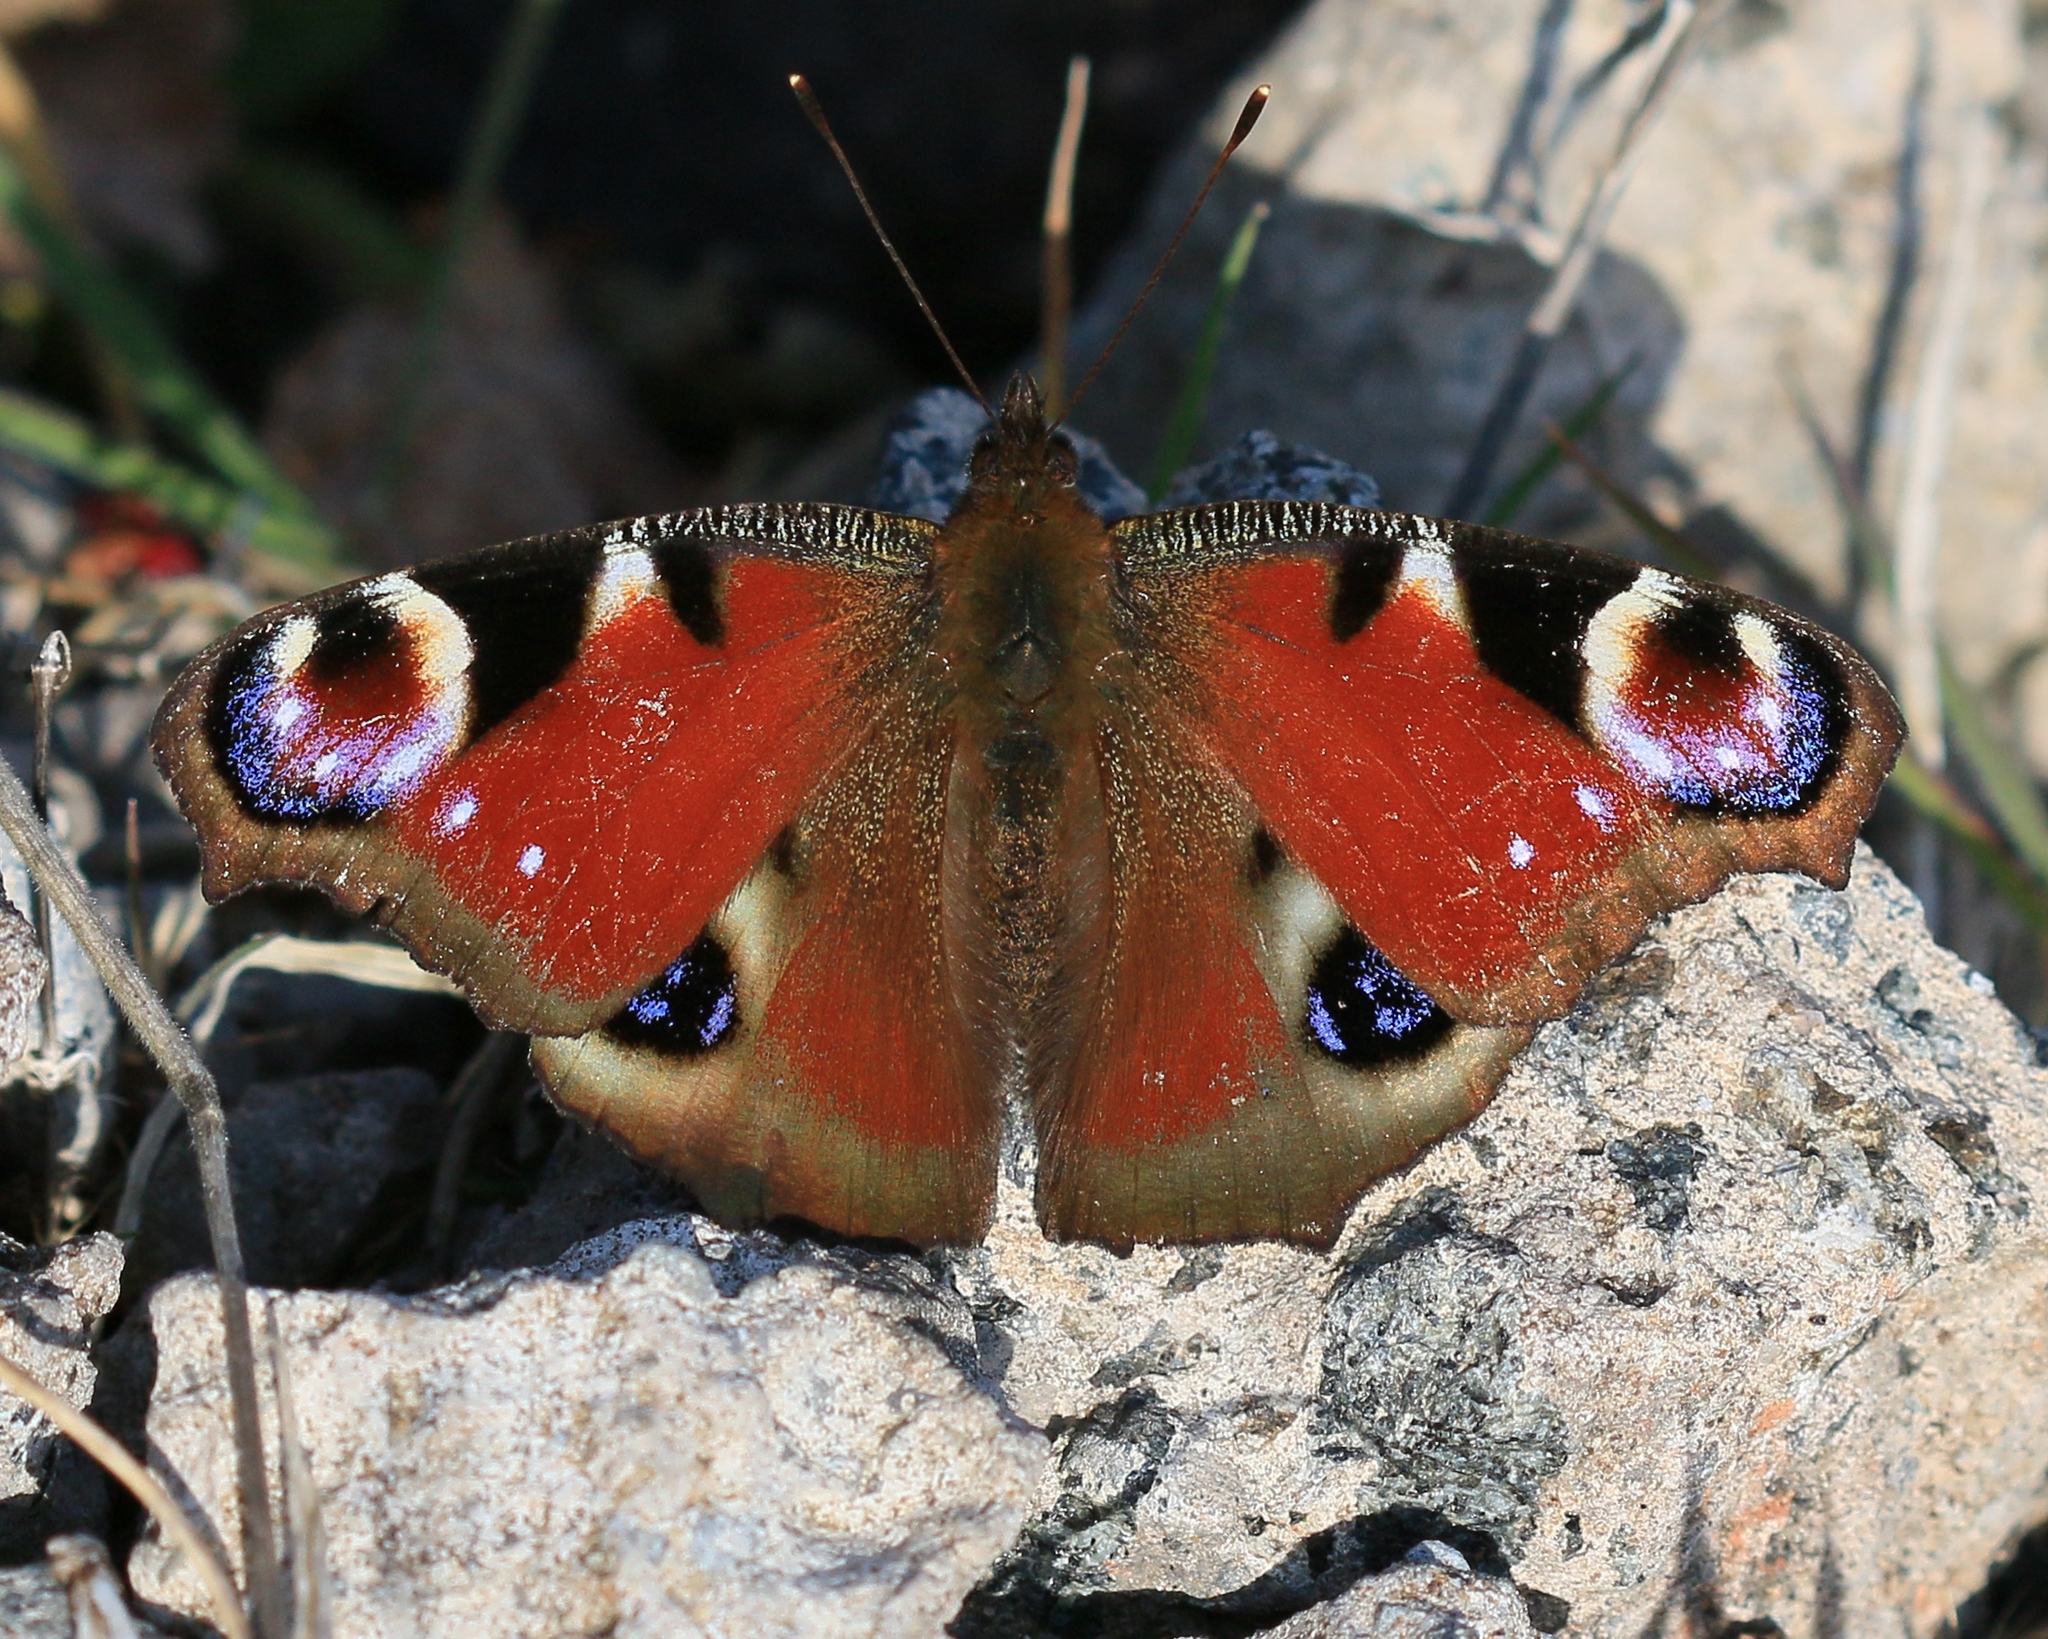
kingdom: Animalia
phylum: Arthropoda
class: Insecta
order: Lepidoptera
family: Nymphalidae
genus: Aglais
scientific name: Aglais io
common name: Peacock
